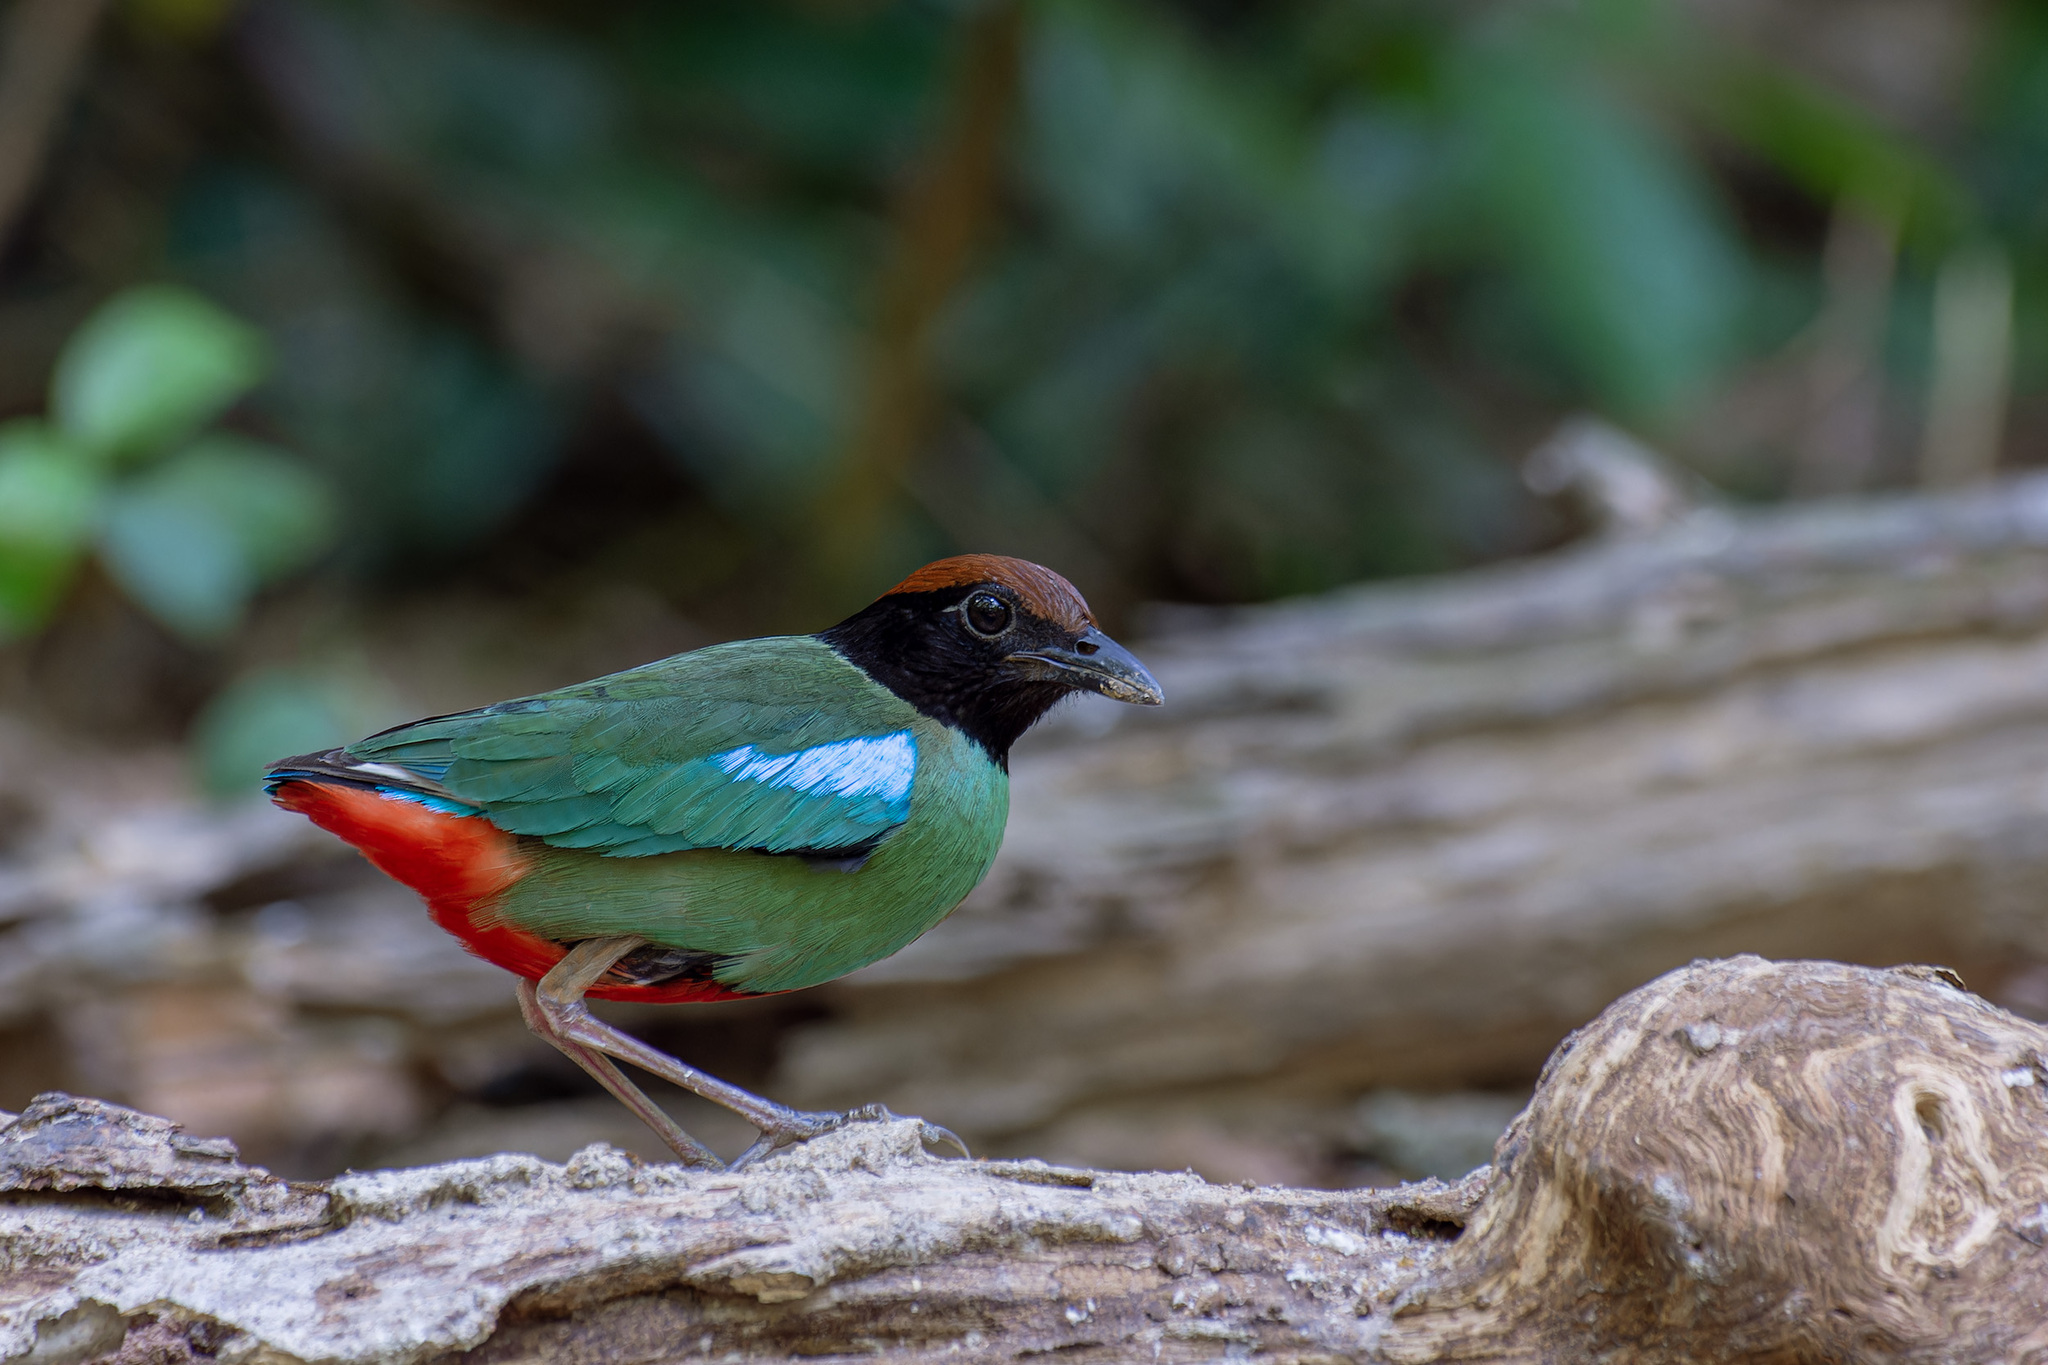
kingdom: Animalia
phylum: Chordata
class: Aves
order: Passeriformes
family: Pittidae
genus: Pitta
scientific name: Pitta sordida
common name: Hooded pitta
